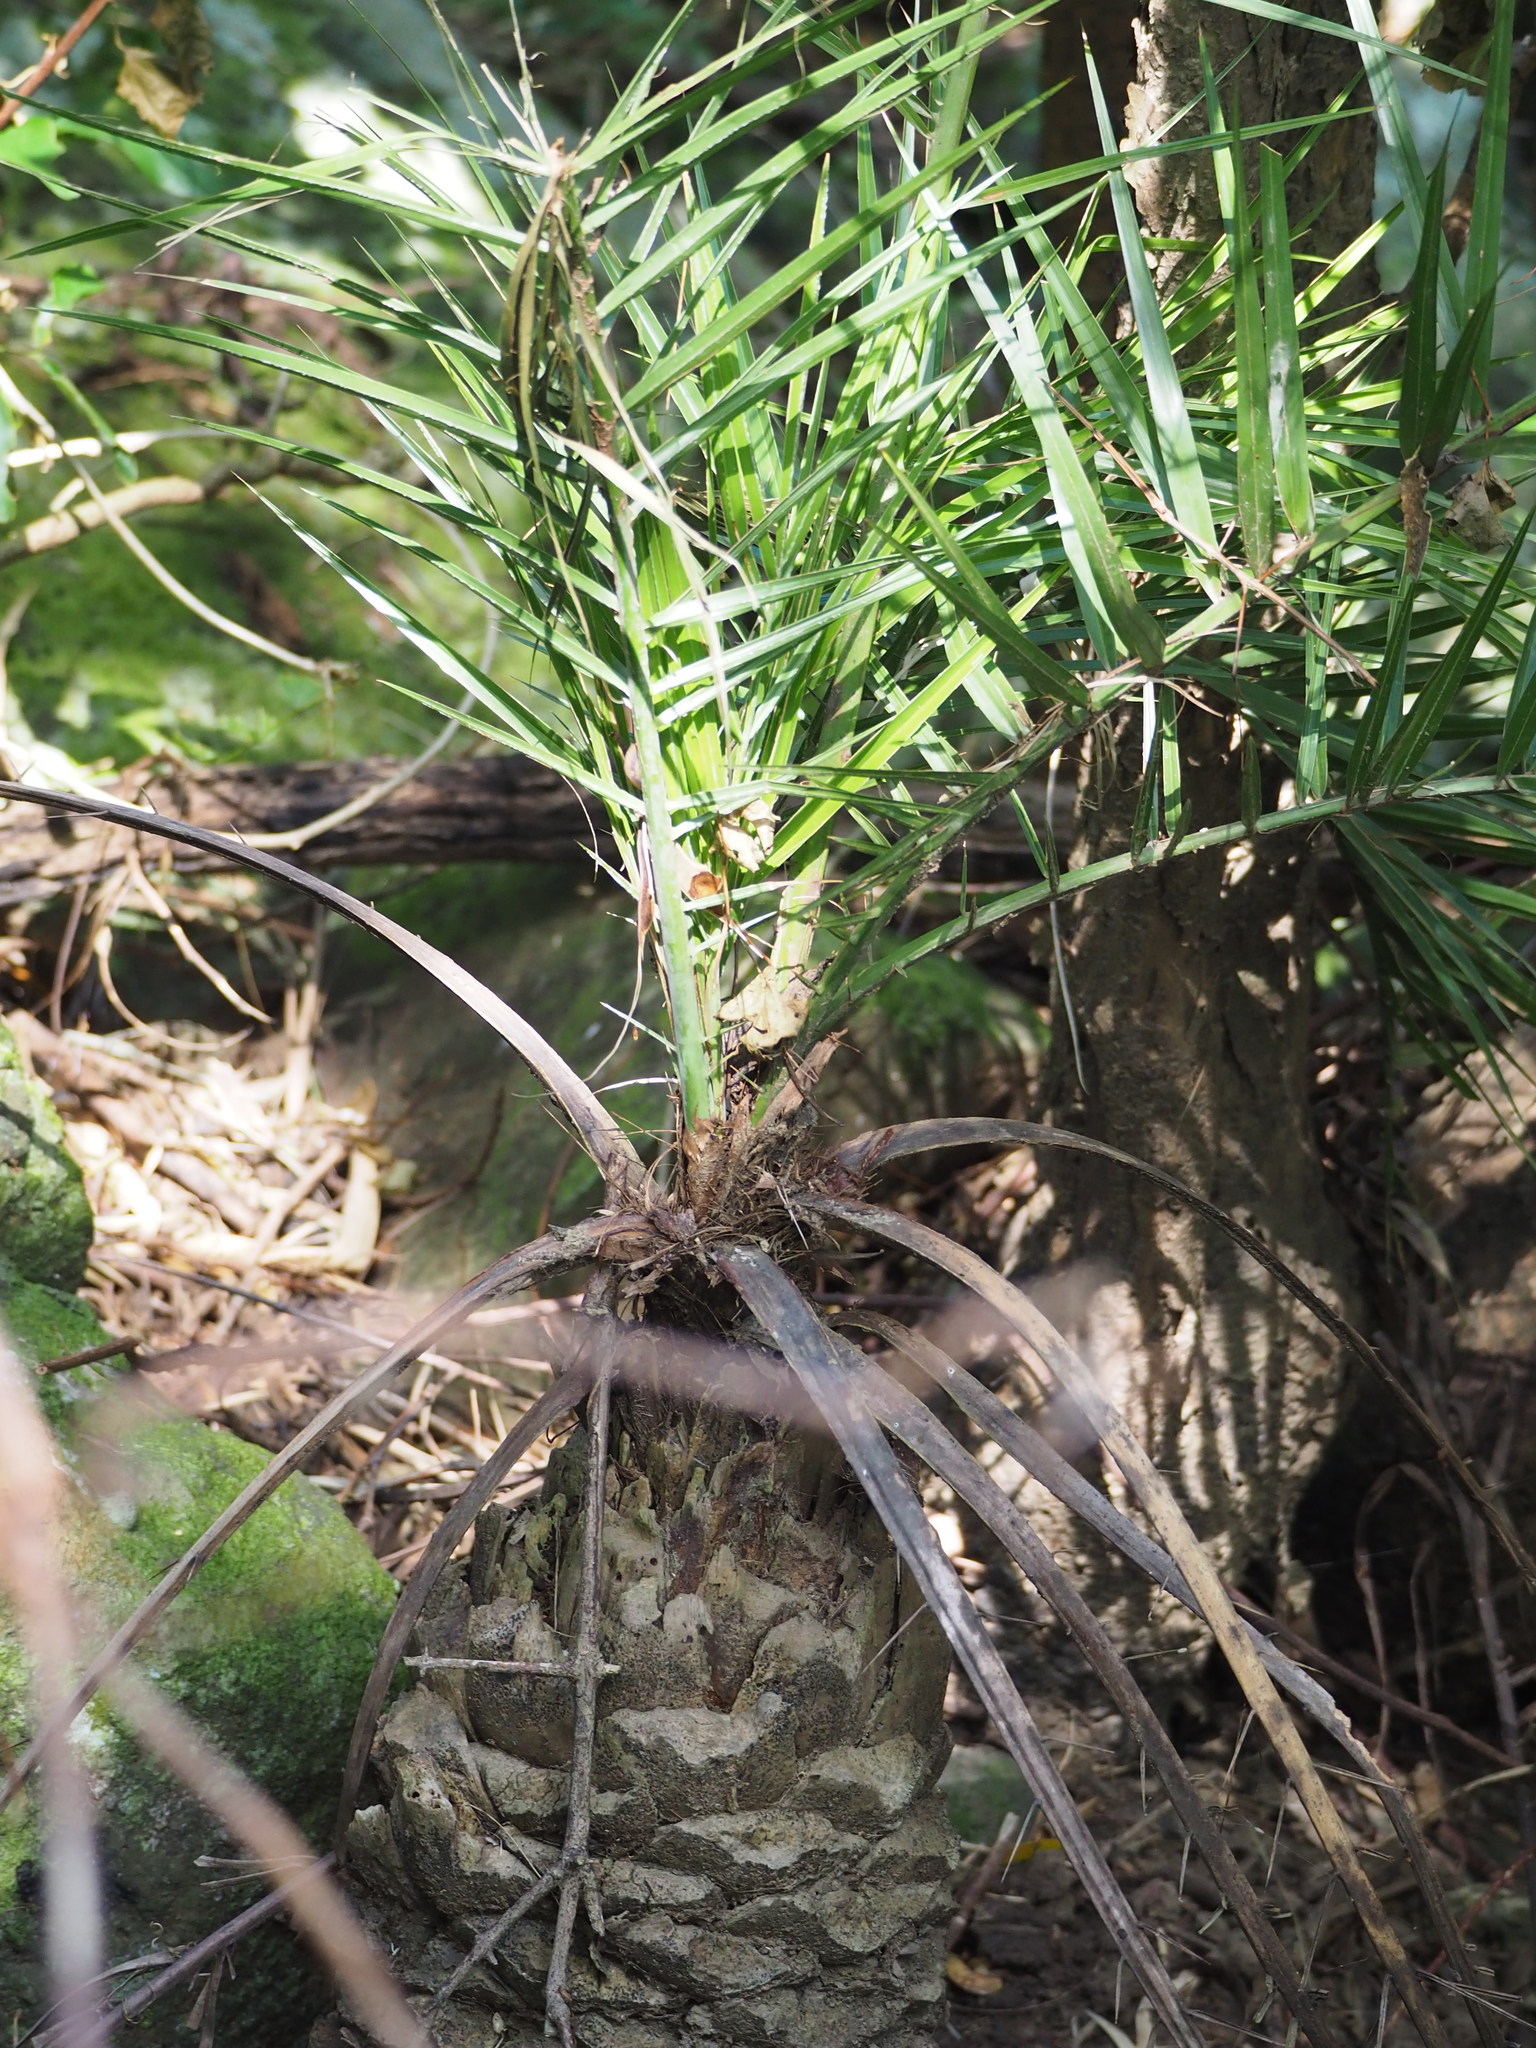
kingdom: Plantae
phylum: Tracheophyta
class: Liliopsida
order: Arecales
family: Arecaceae
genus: Phoenix
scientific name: Phoenix loureiroi
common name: Loureiro's palm
